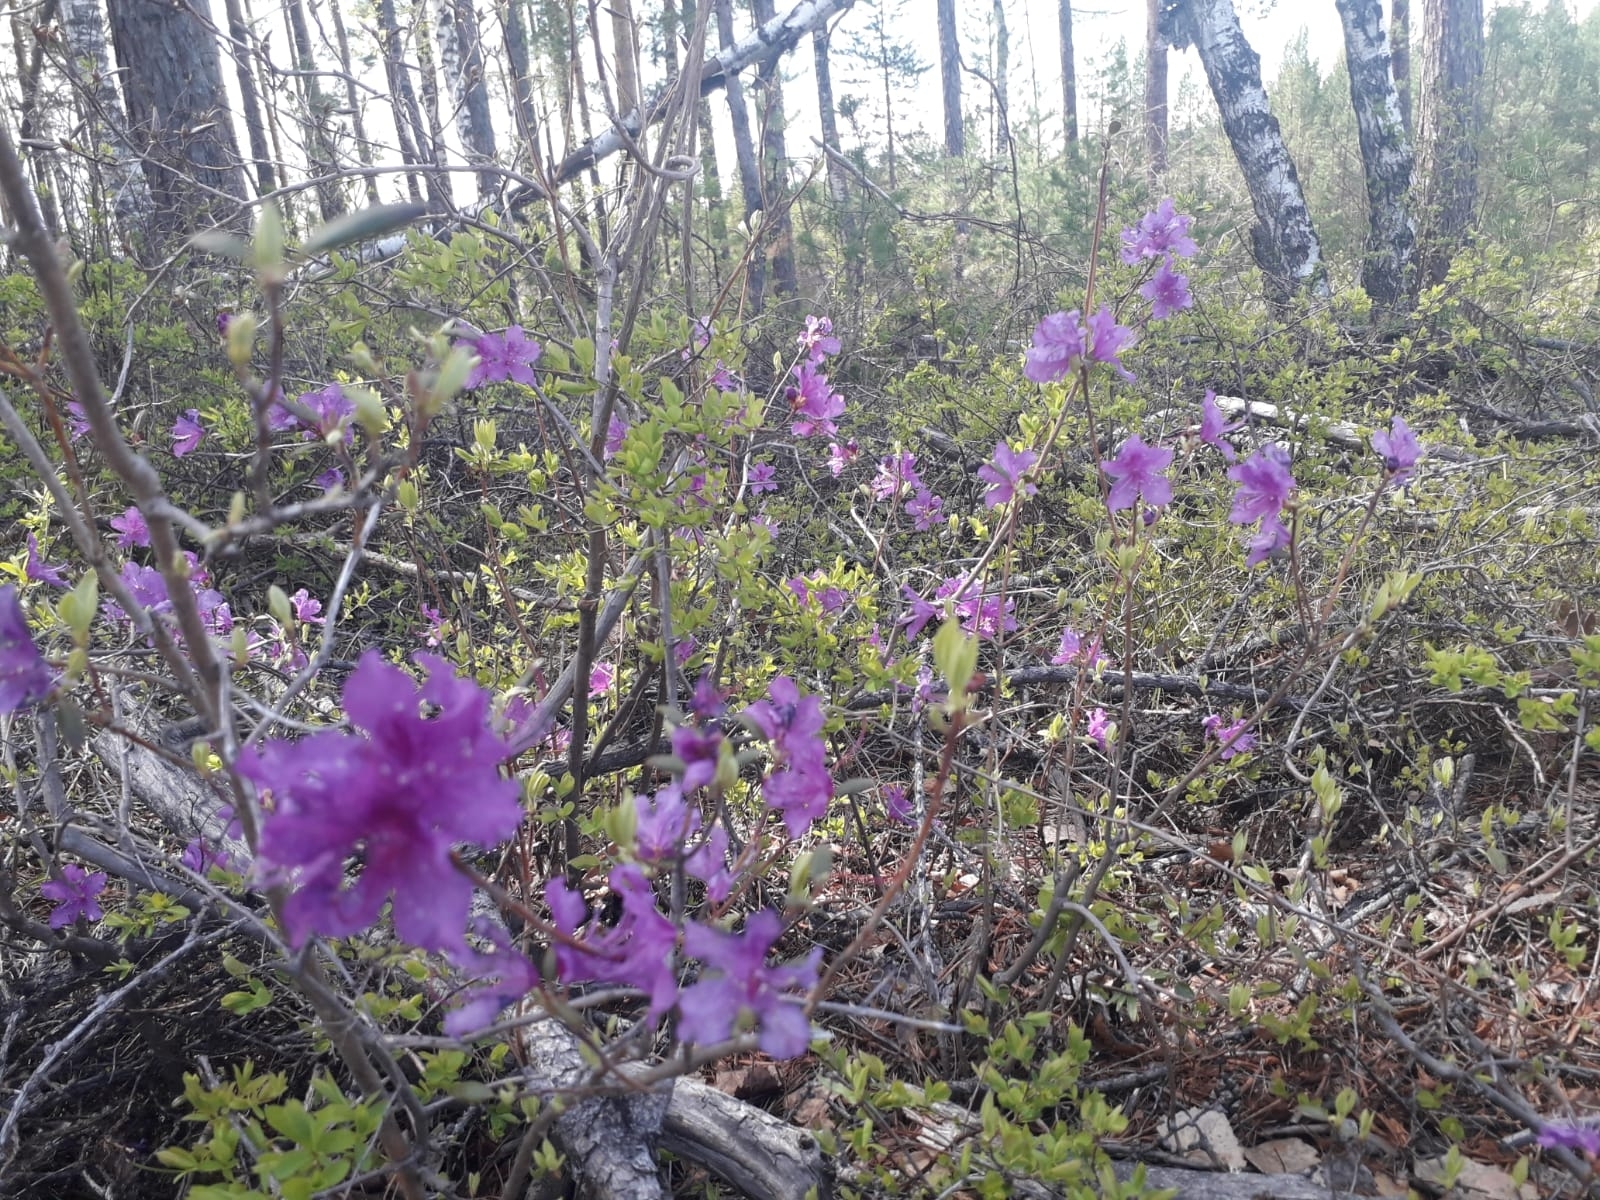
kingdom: Plantae
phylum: Tracheophyta
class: Magnoliopsida
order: Ericales
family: Ericaceae
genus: Rhododendron
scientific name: Rhododendron dauricum
